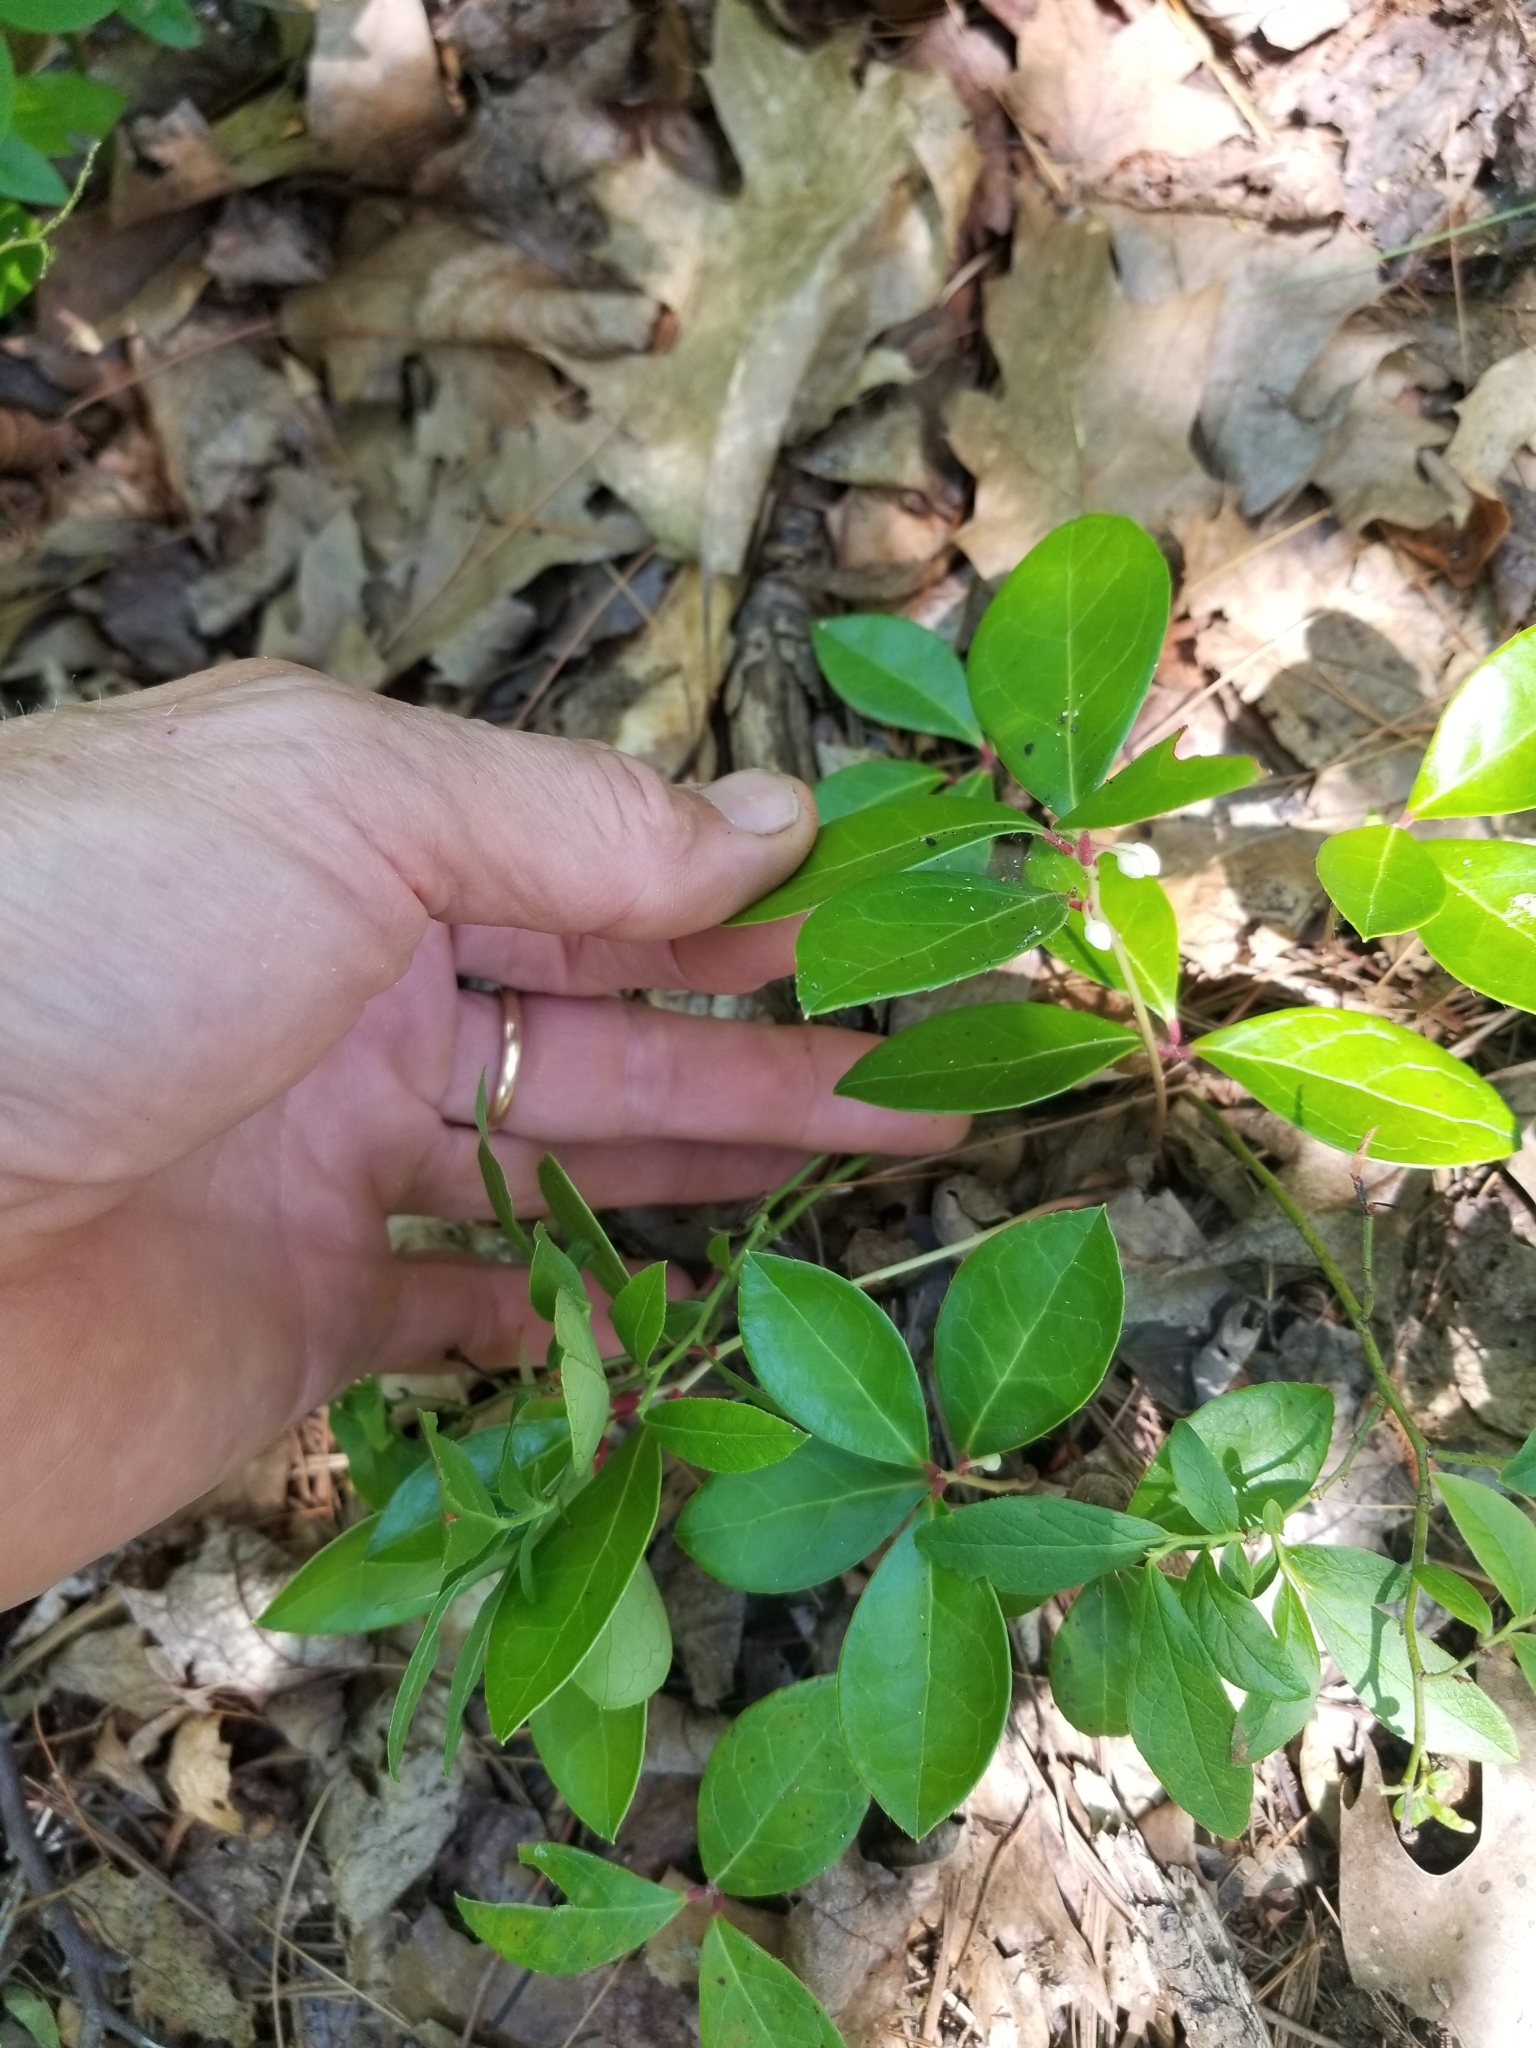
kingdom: Plantae
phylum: Tracheophyta
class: Magnoliopsida
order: Ericales
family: Ericaceae
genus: Gaultheria
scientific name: Gaultheria procumbens
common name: Checkerberry
